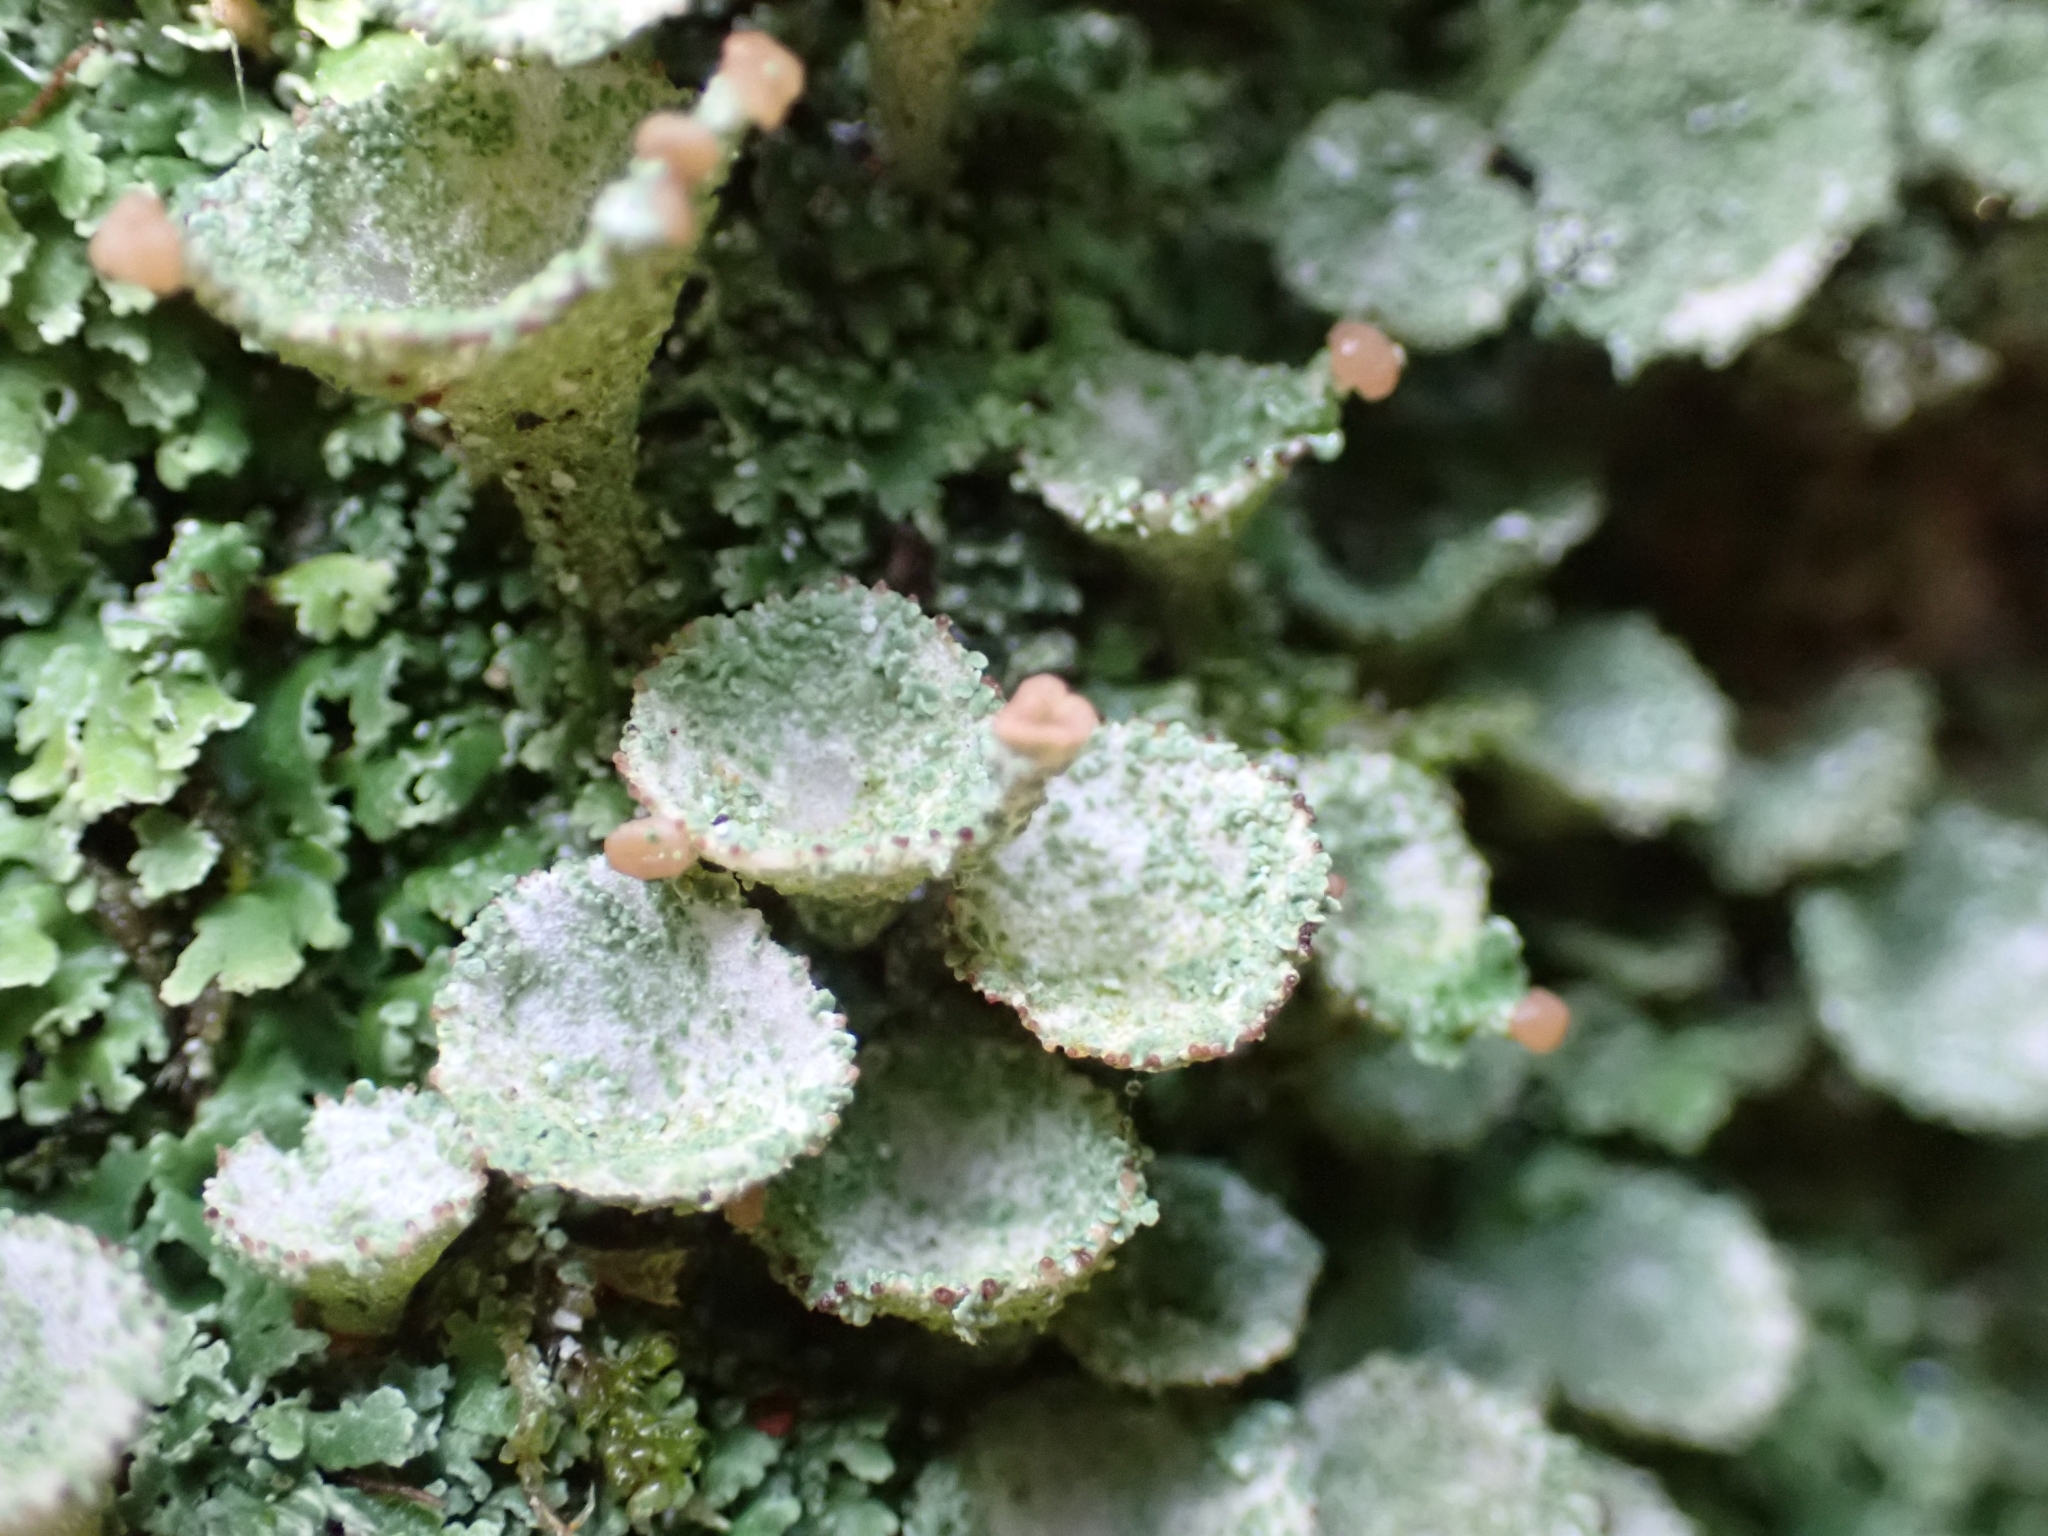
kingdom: Fungi
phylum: Ascomycota
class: Lecanoromycetes
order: Lecanorales
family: Cladoniaceae
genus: Cladonia
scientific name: Cladonia pyxidata
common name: Pebbled pixie cup
